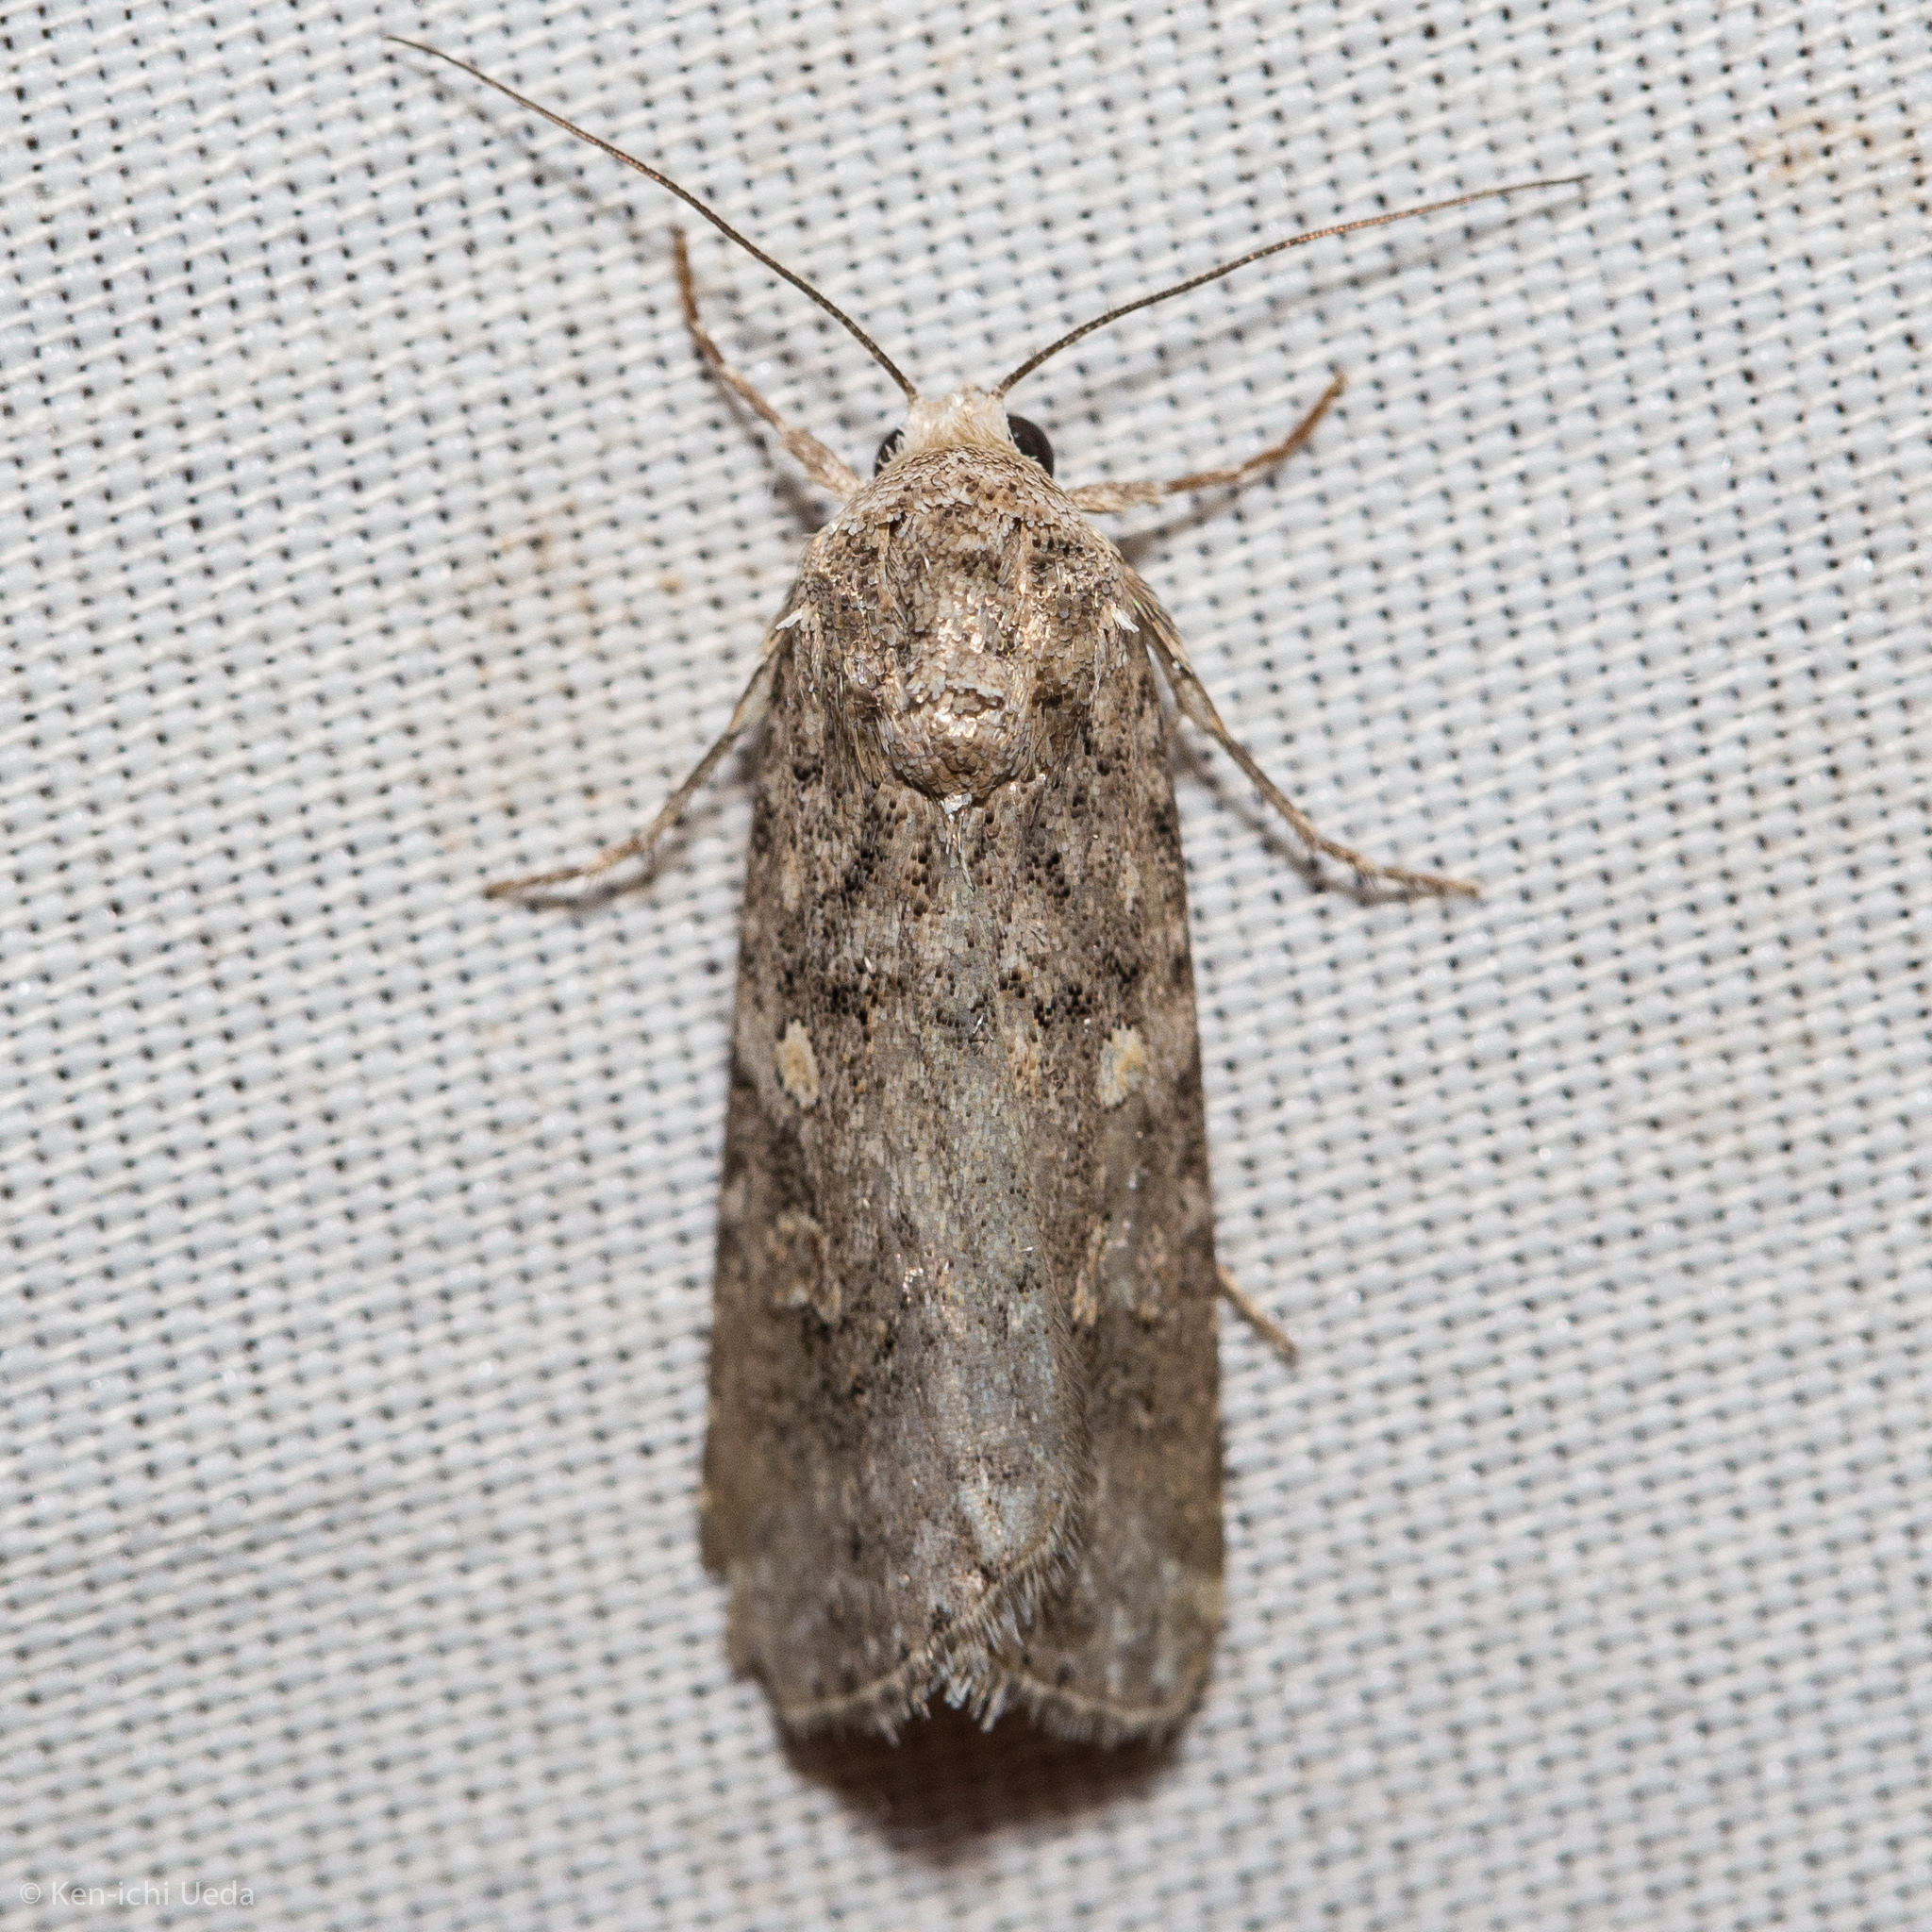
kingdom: Animalia
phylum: Arthropoda
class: Insecta
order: Lepidoptera
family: Noctuidae
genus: Spodoptera
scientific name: Spodoptera exigua
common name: Beet armyworm
